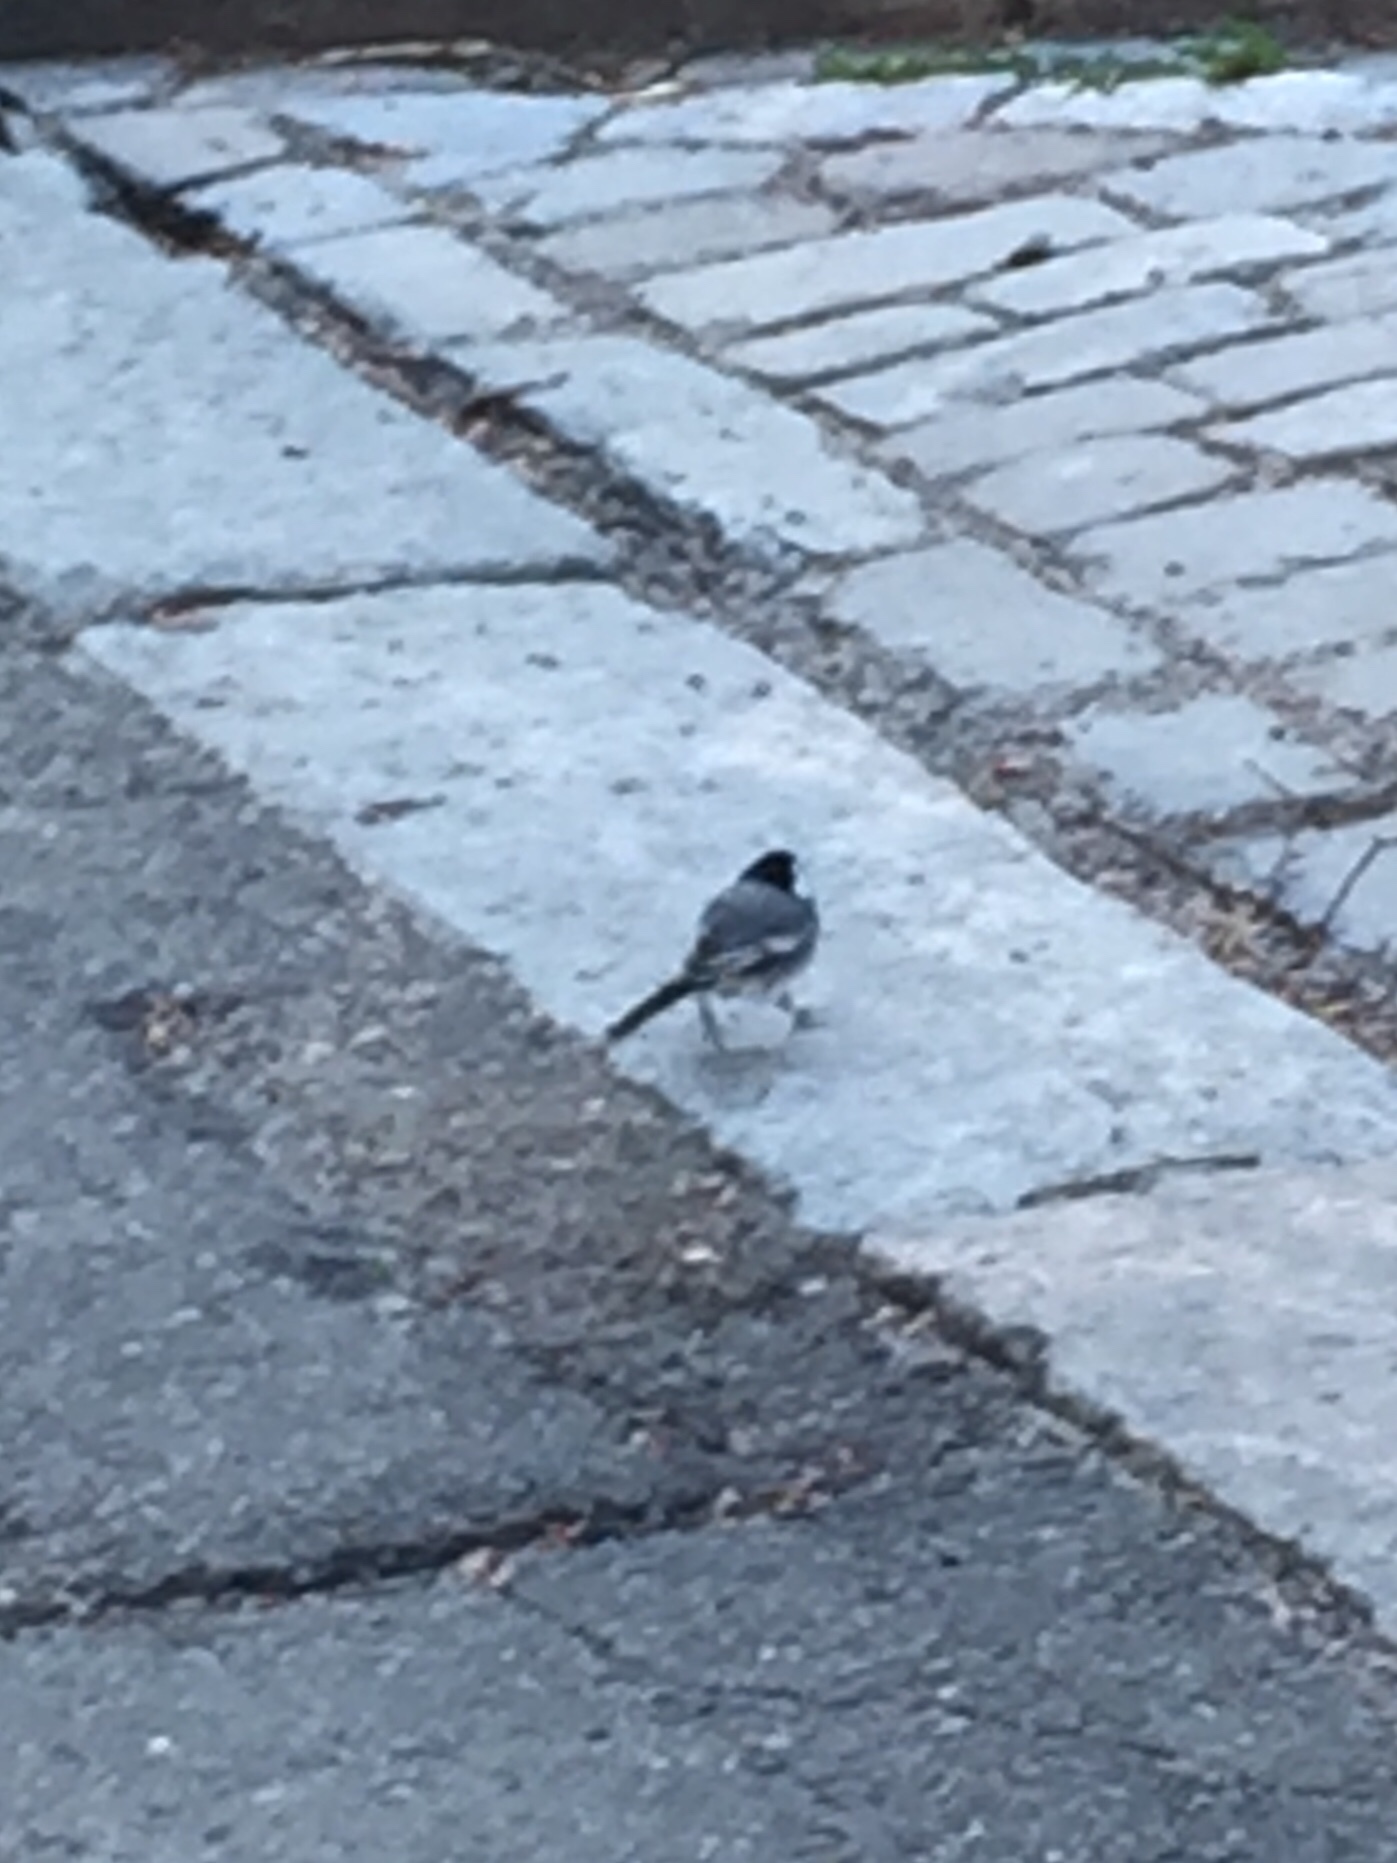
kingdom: Animalia
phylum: Chordata
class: Aves
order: Passeriformes
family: Motacillidae
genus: Motacilla
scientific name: Motacilla alba
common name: White wagtail
